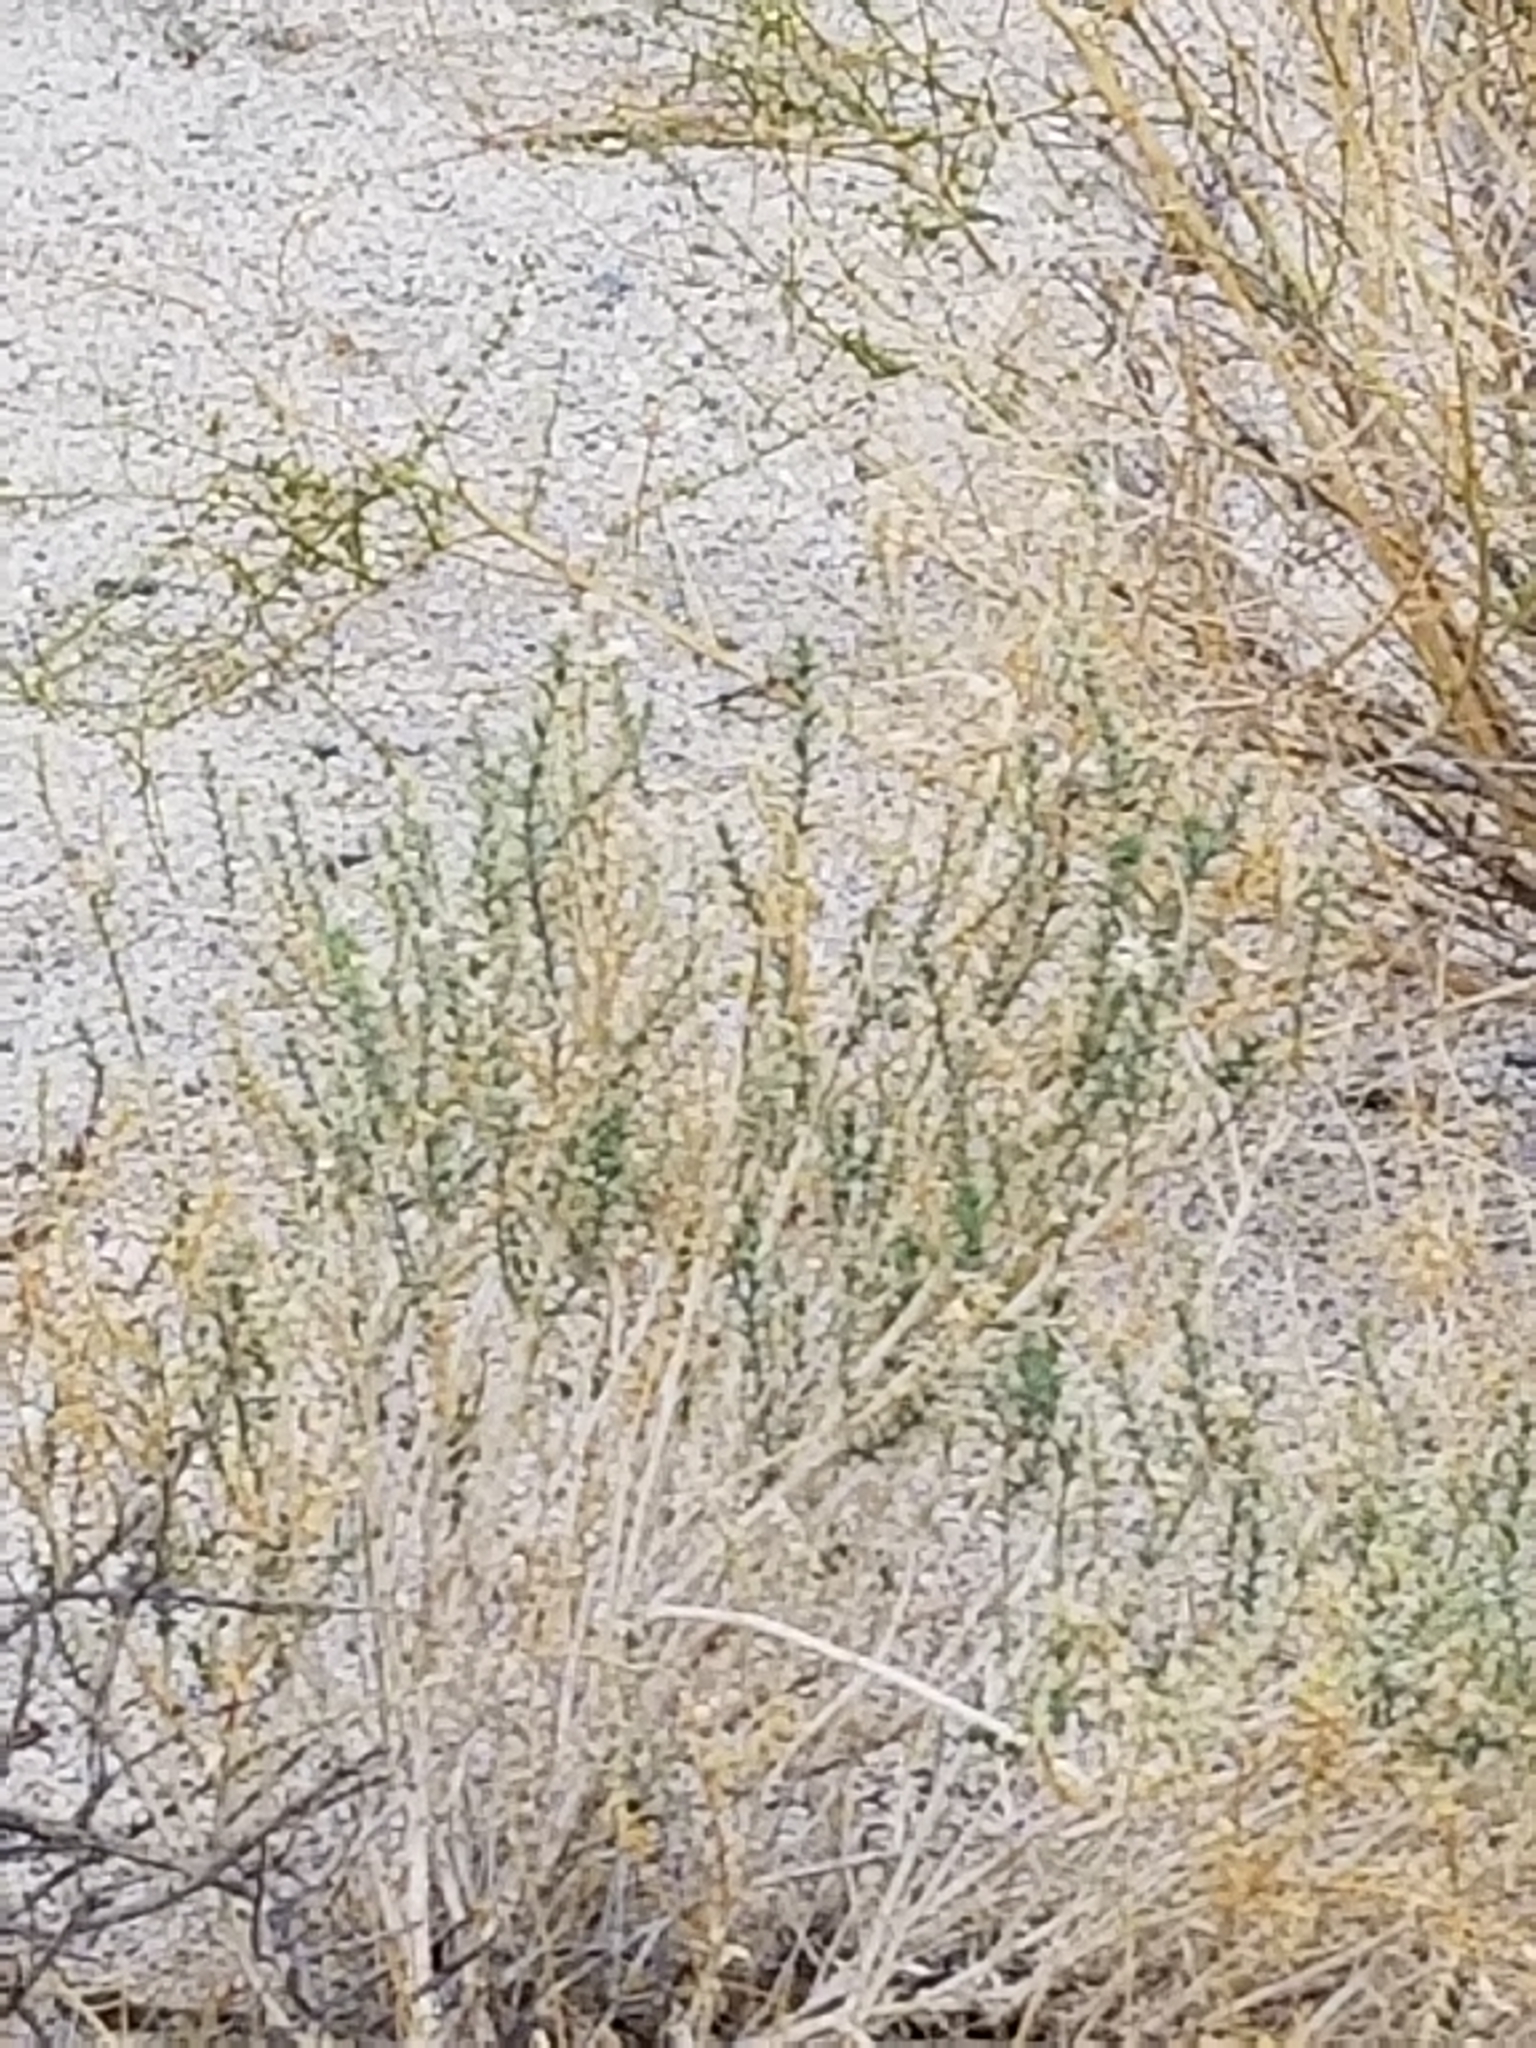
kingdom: Plantae
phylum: Tracheophyta
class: Magnoliopsida
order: Cornales
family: Loasaceae
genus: Petalonyx
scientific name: Petalonyx thurberi
